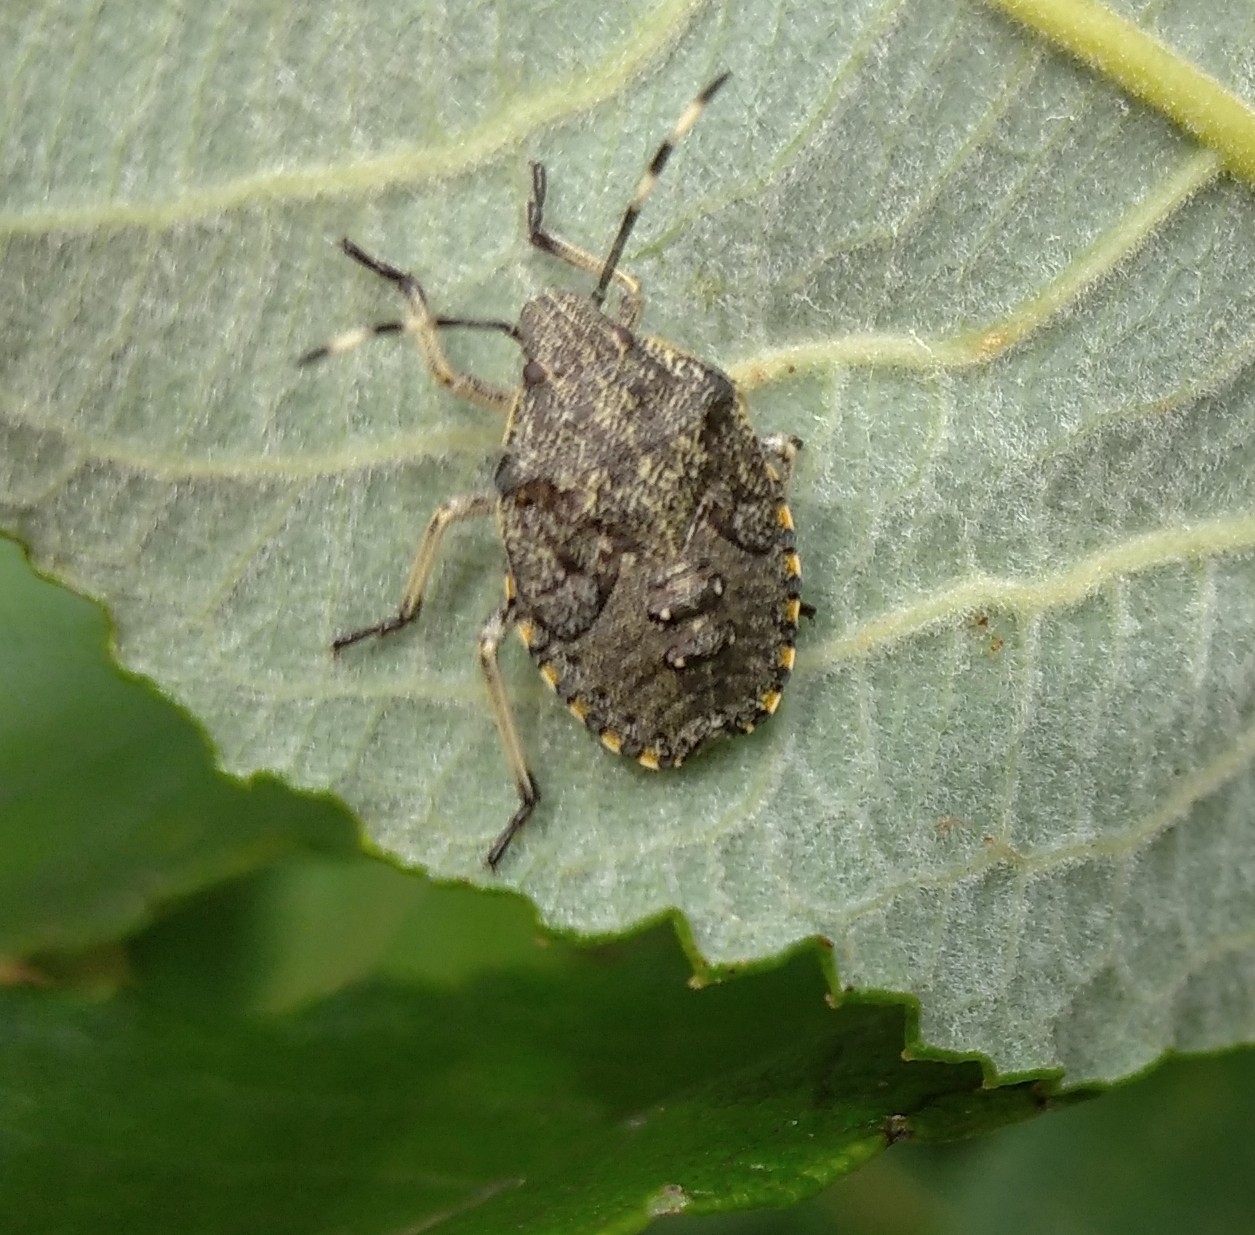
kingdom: Animalia
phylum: Arthropoda
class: Insecta
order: Hemiptera
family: Pentatomidae
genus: Rhaphigaster
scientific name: Rhaphigaster nebulosa
